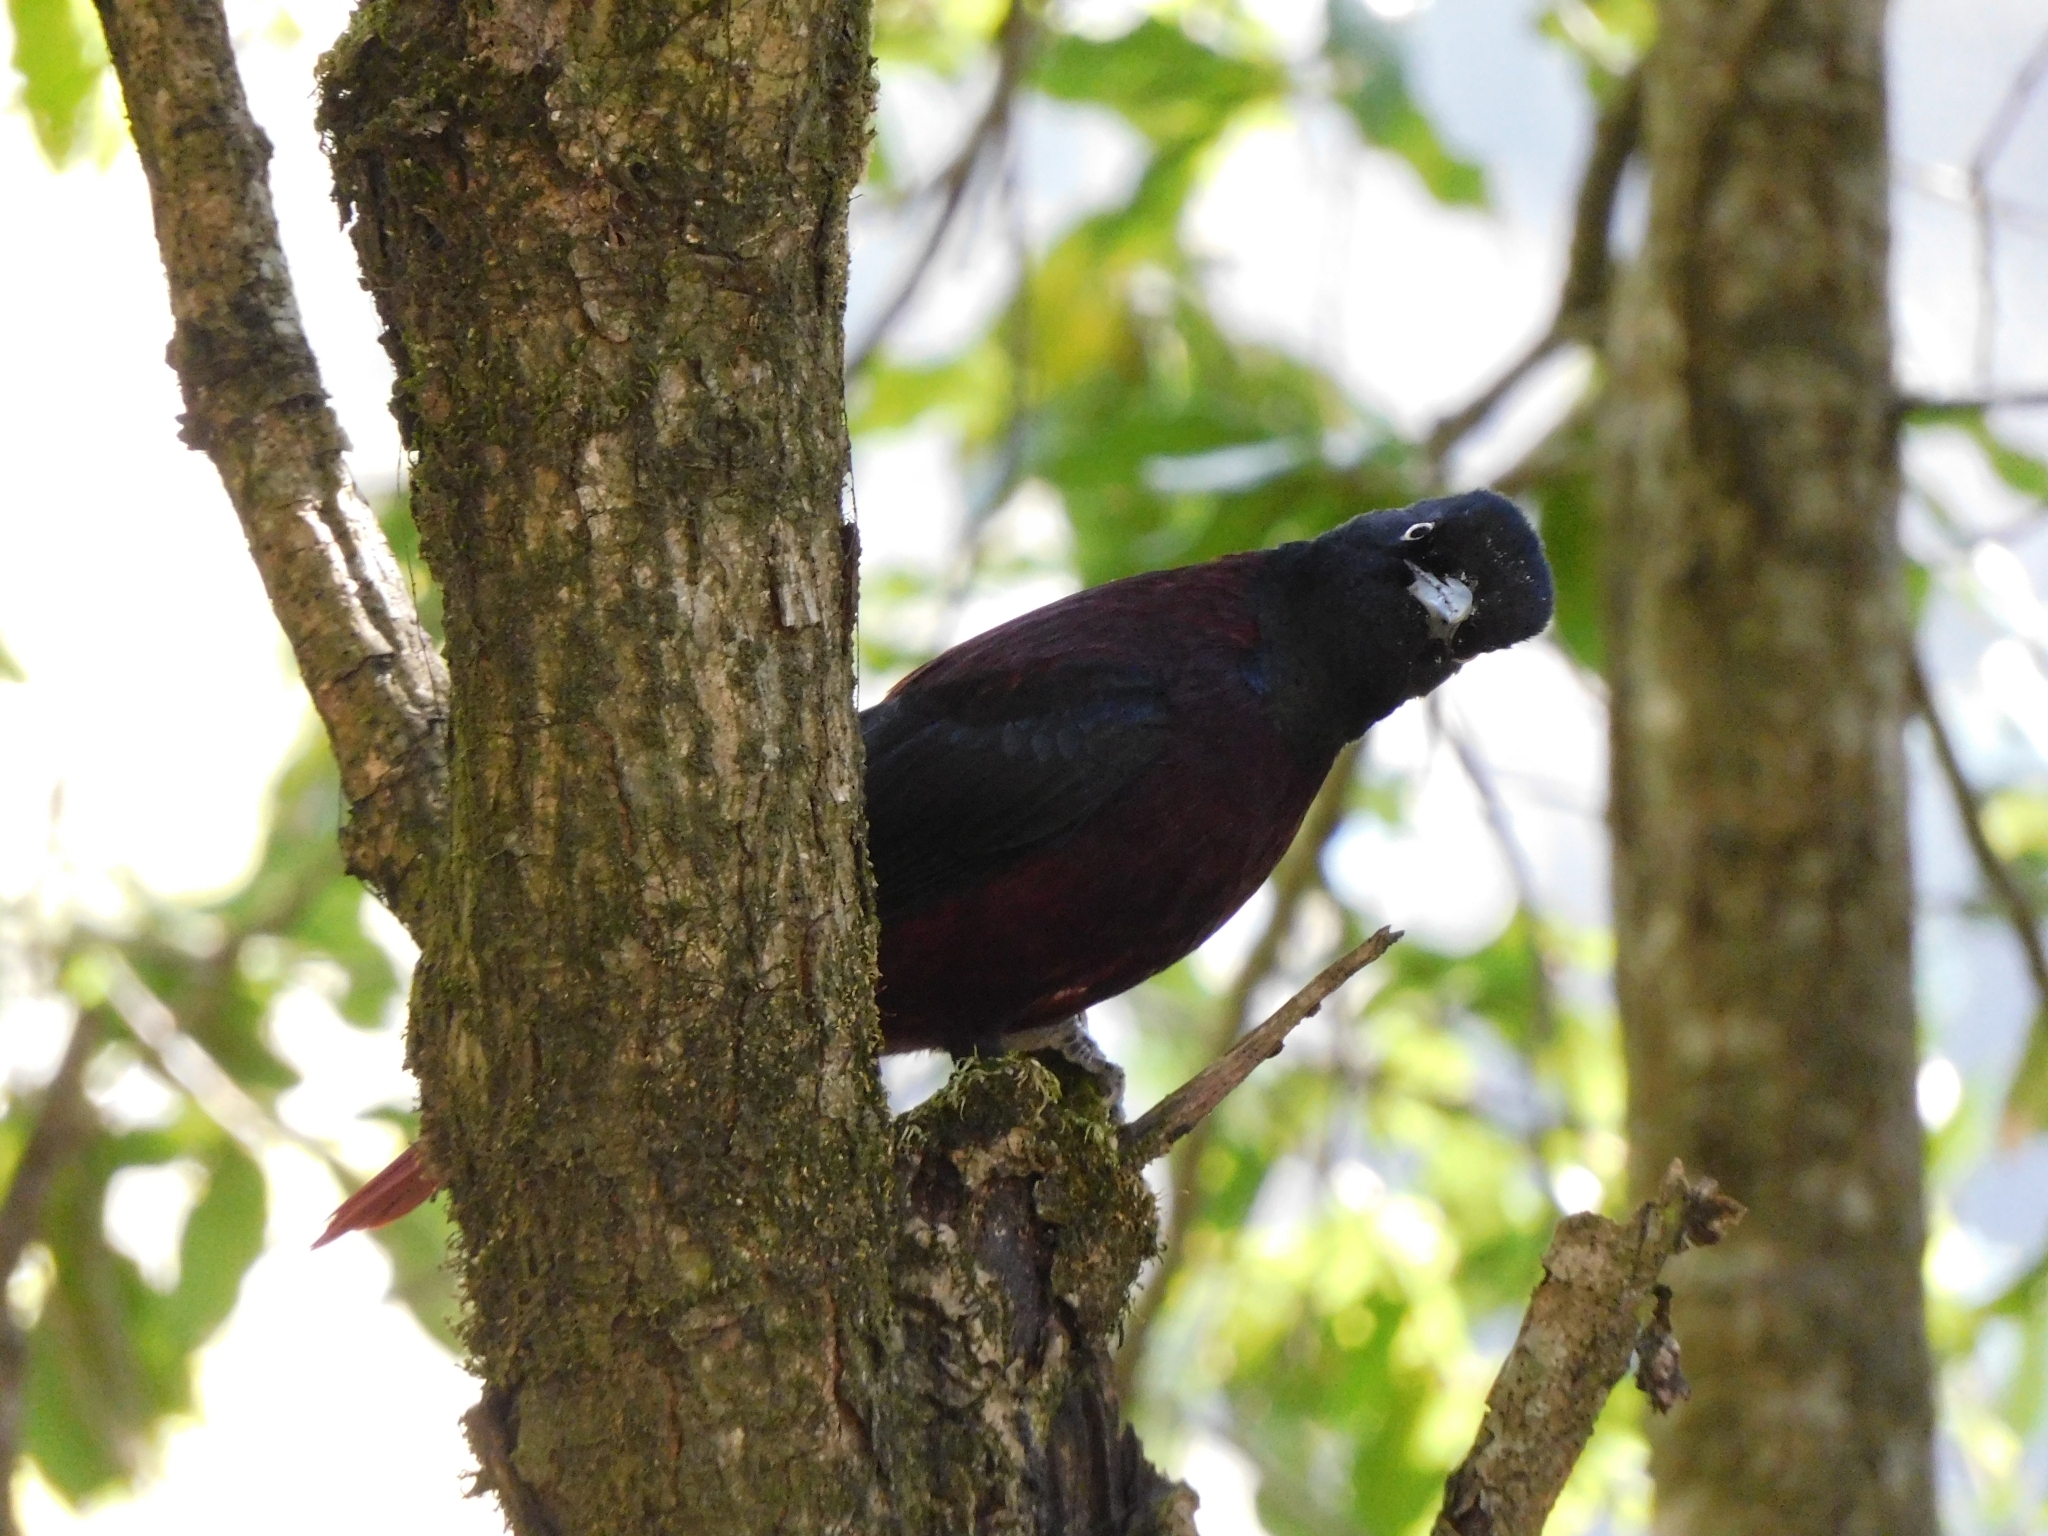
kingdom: Animalia
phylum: Chordata
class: Aves
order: Passeriformes
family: Oriolidae
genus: Oriolus
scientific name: Oriolus traillii
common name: Maroon oriole
